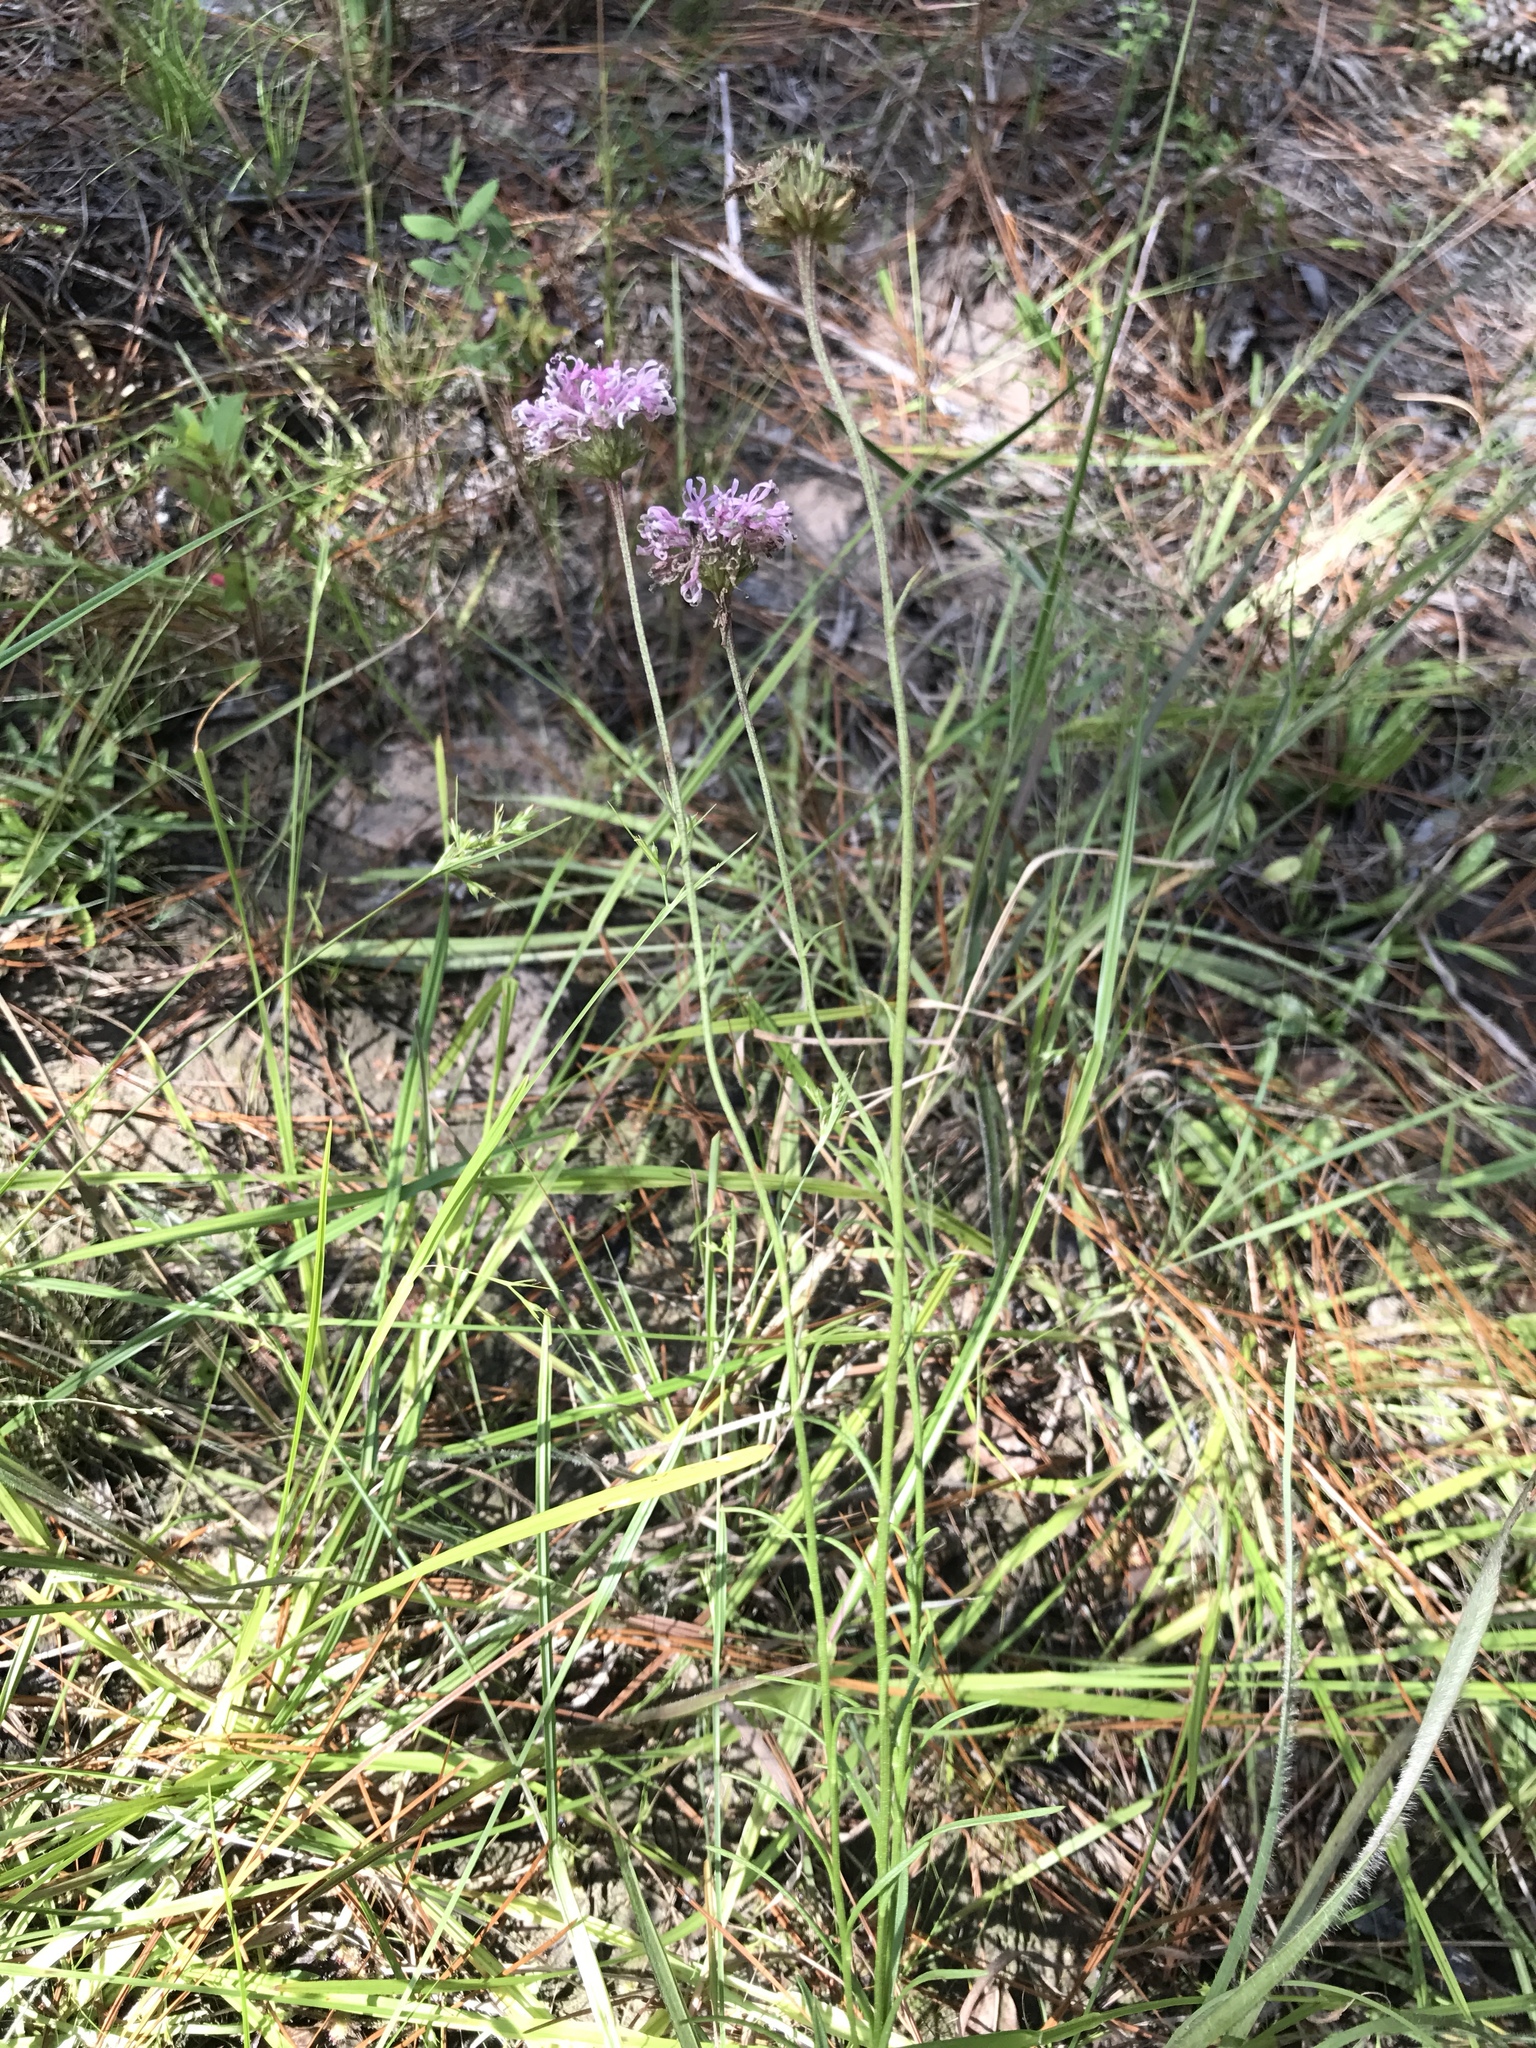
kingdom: Plantae
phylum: Tracheophyta
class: Magnoliopsida
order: Asterales
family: Asteraceae
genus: Marshallia
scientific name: Marshallia graminifolia
